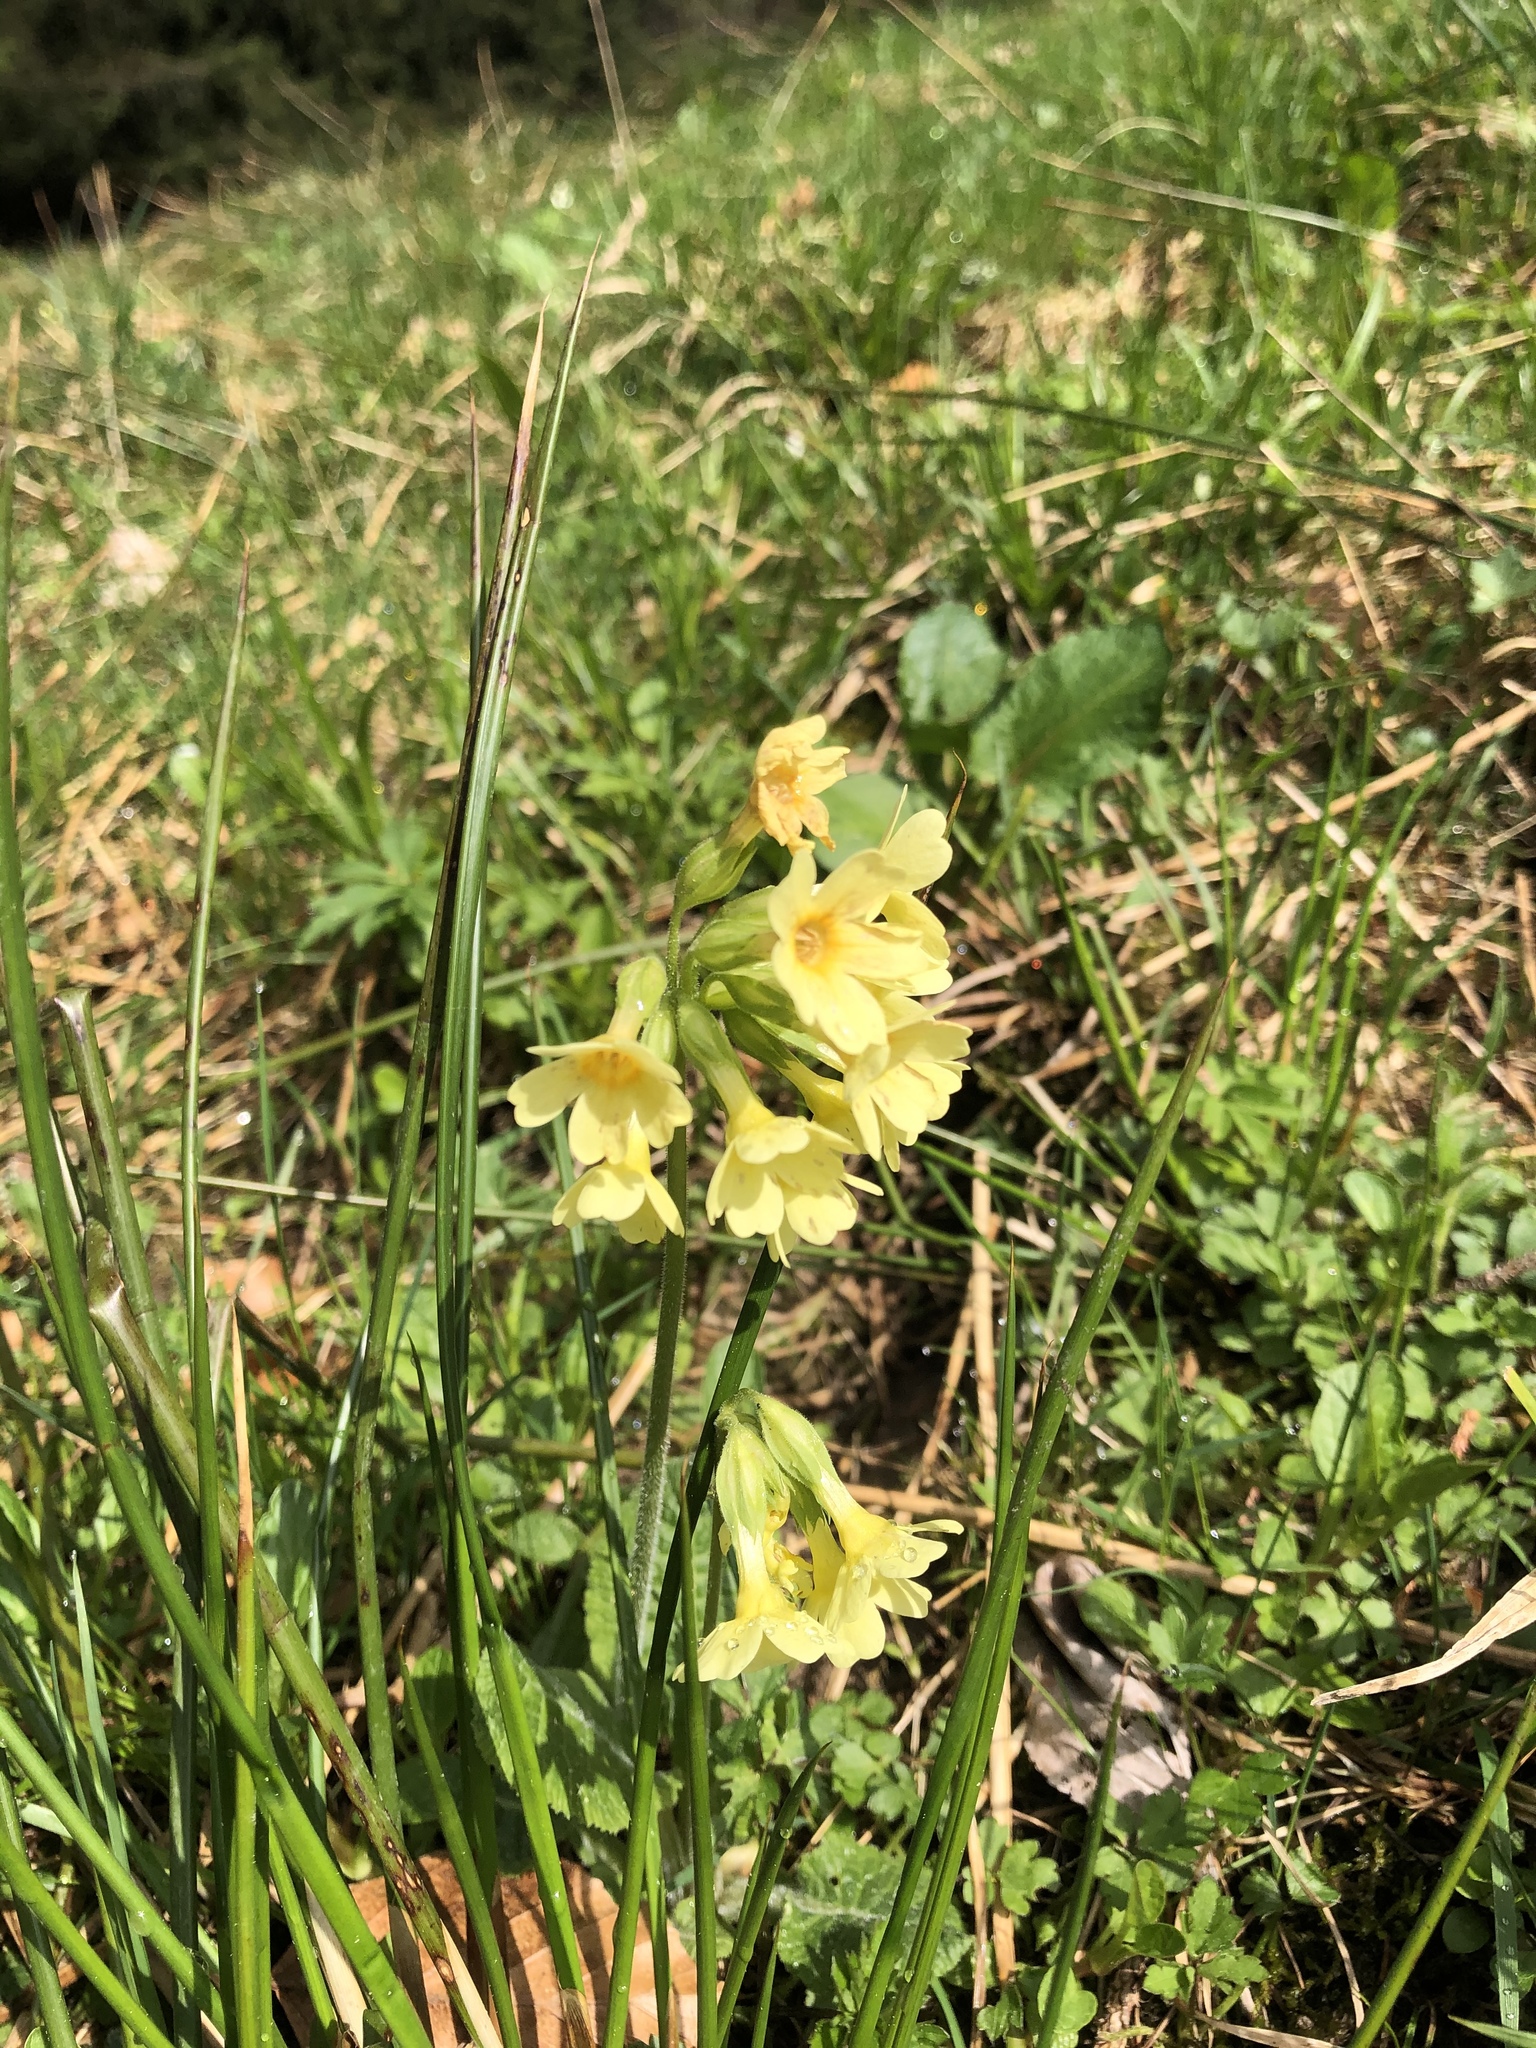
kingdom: Plantae
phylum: Tracheophyta
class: Magnoliopsida
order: Ericales
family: Primulaceae
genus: Primula
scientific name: Primula elatior
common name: Oxlip
